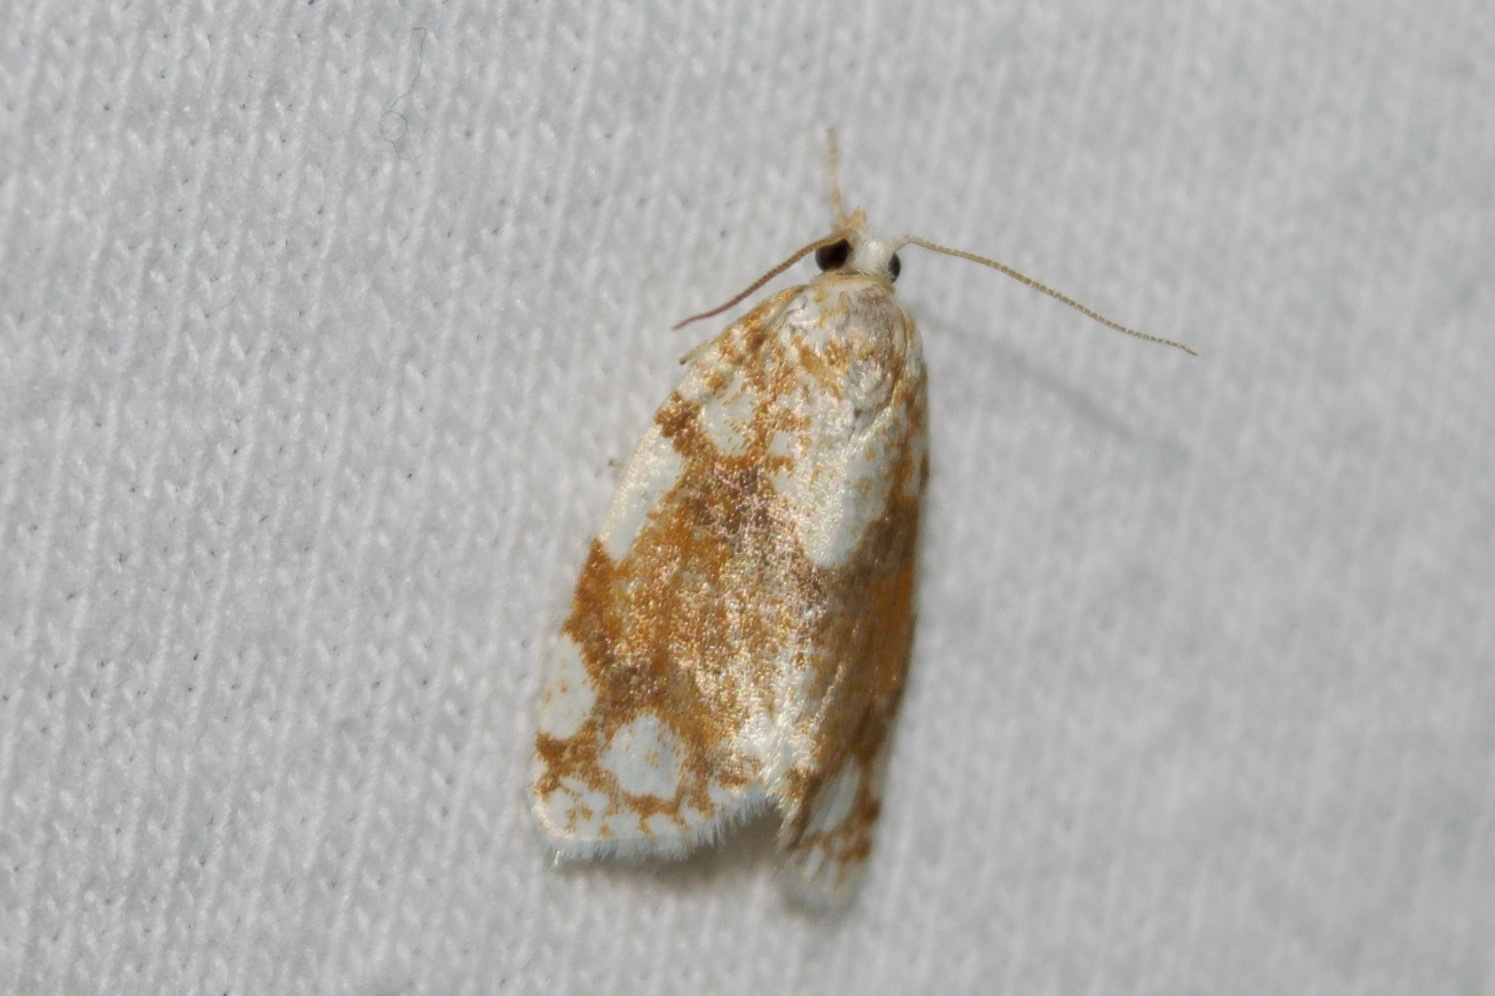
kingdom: Animalia
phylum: Arthropoda
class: Insecta
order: Lepidoptera
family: Tortricidae
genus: Argyrotaenia
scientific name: Argyrotaenia alisellana
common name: White-spotted leafroller moth
